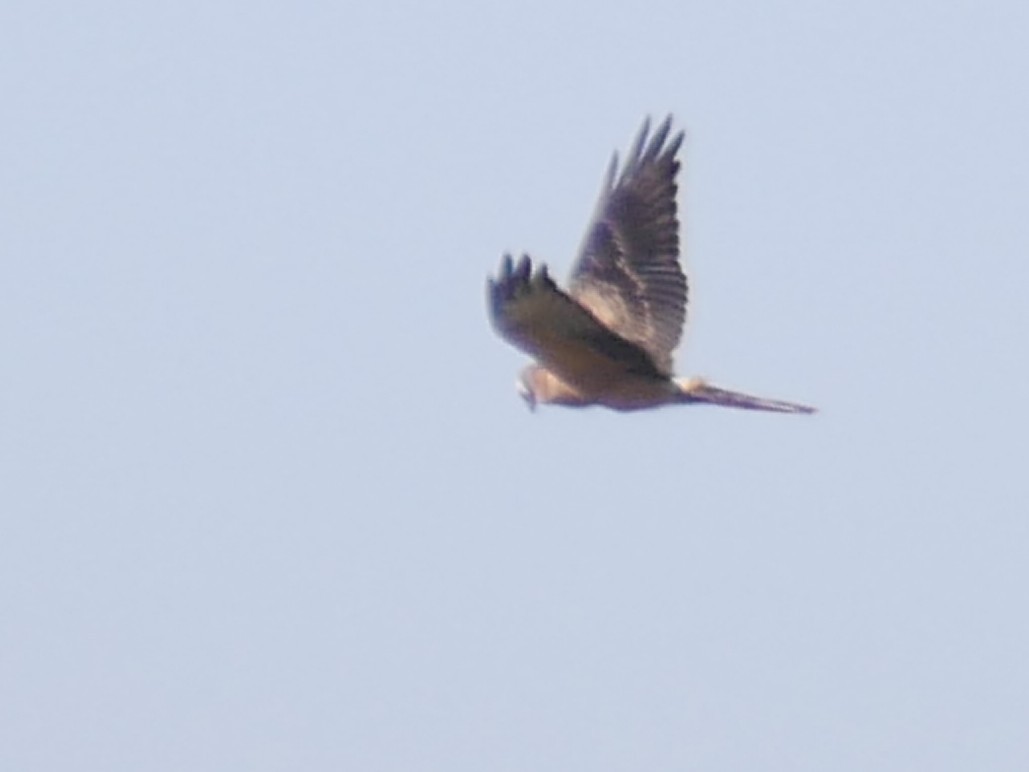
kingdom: Animalia
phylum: Chordata
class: Aves
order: Accipitriformes
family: Accipitridae
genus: Circus
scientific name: Circus pygargus
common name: Montagu's harrier
